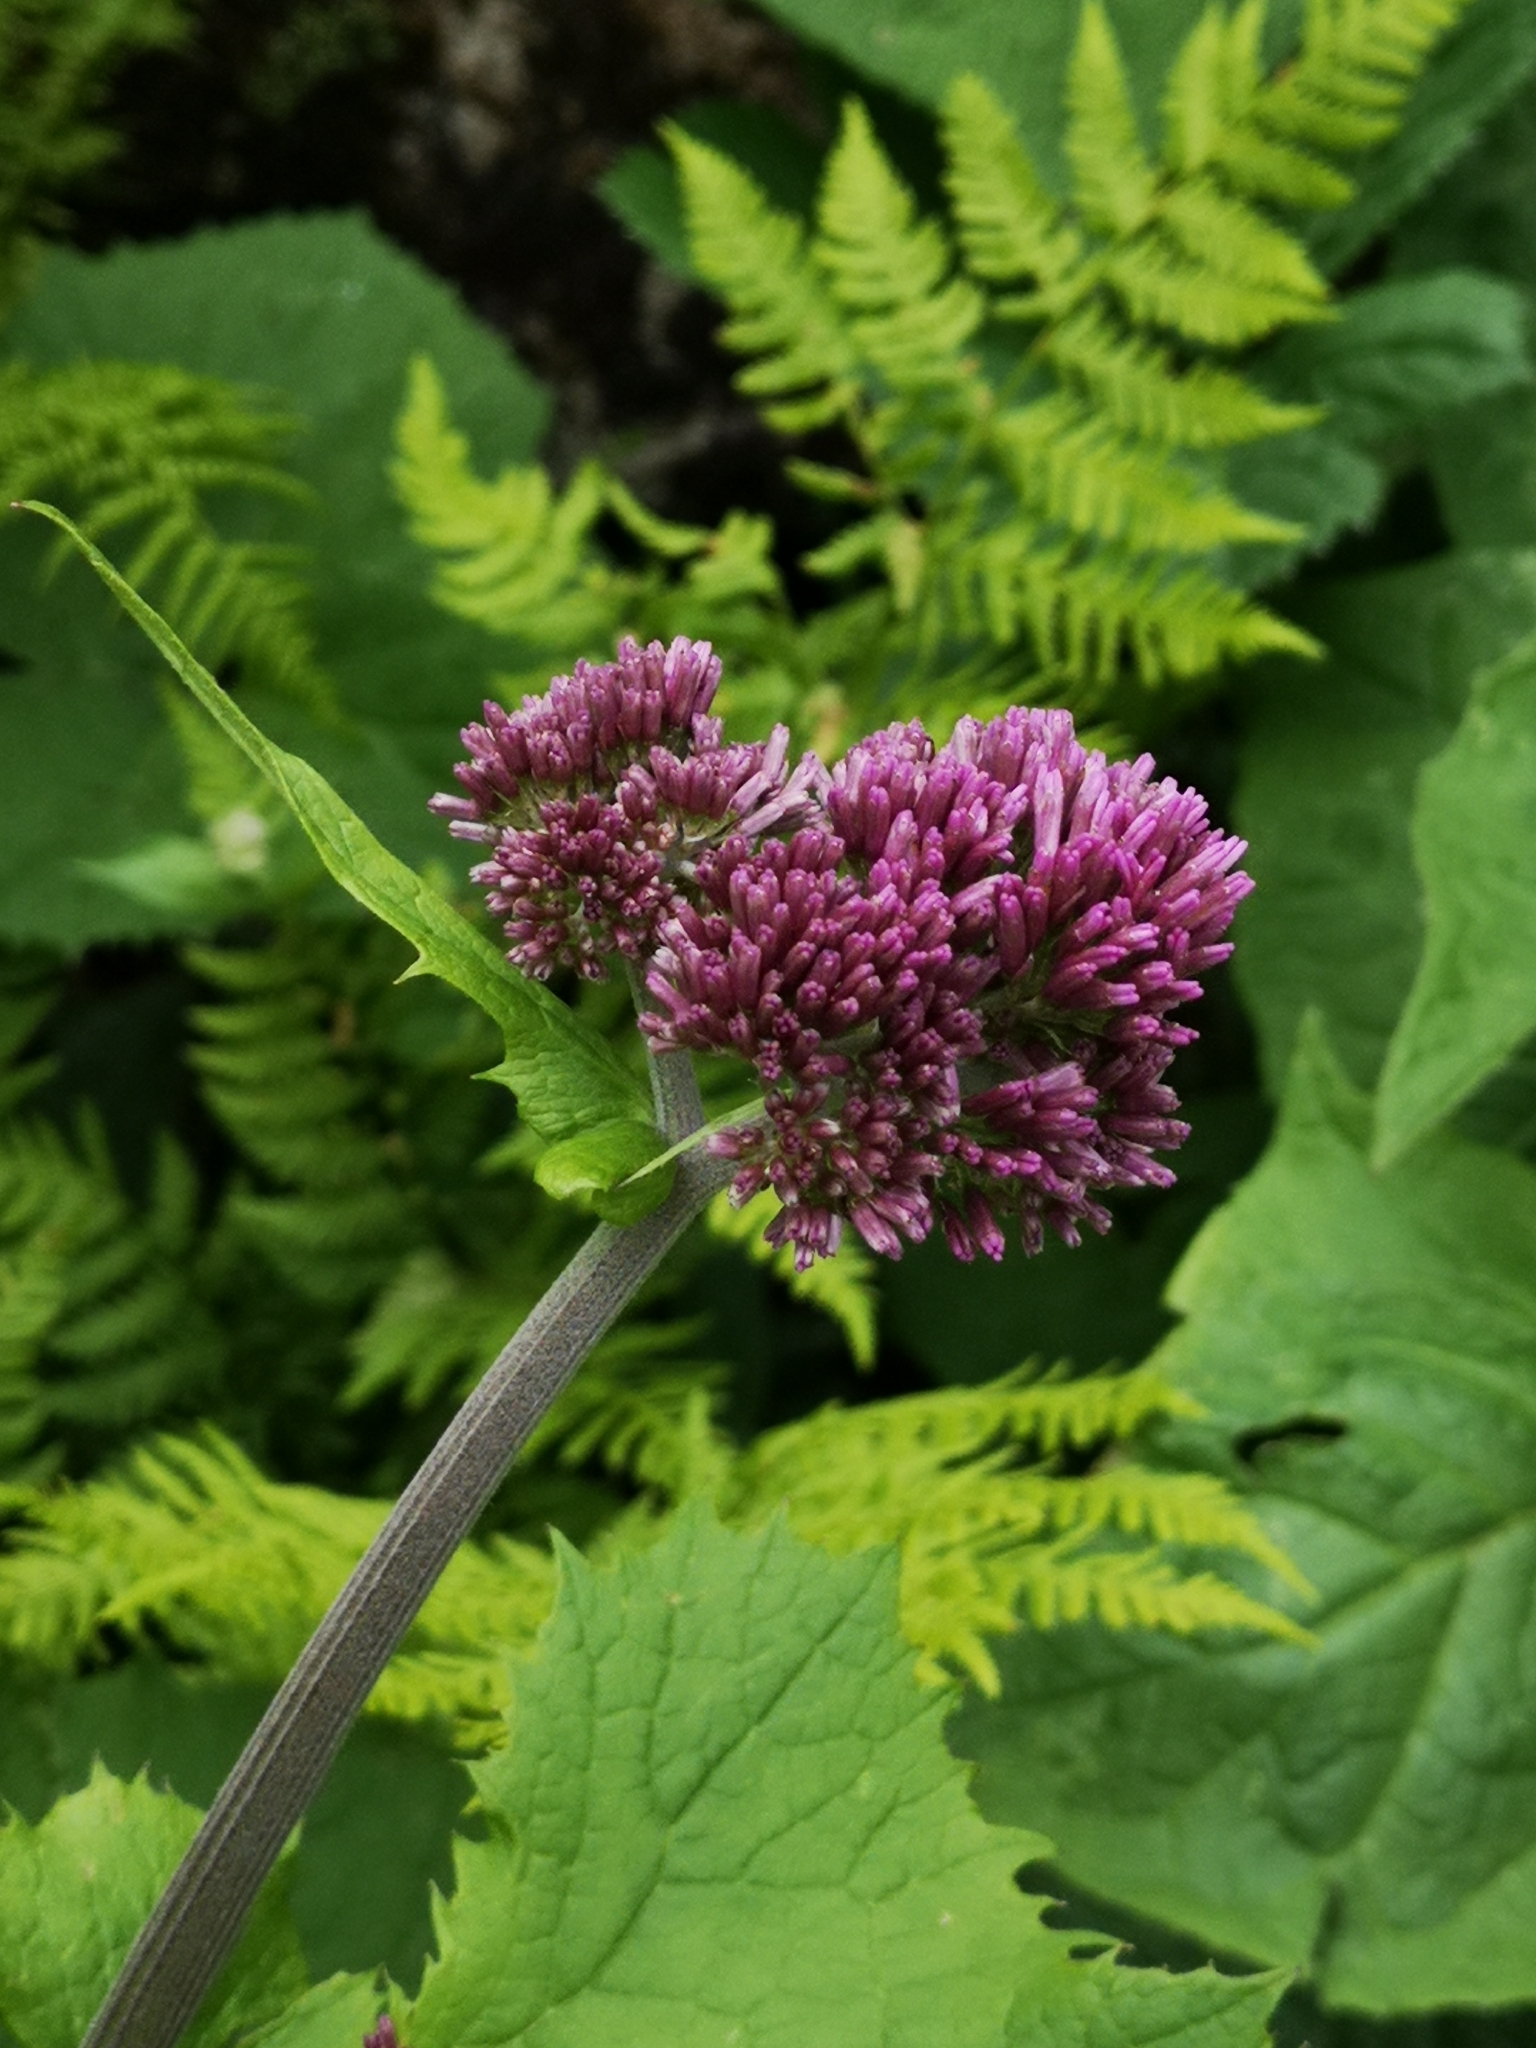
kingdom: Plantae
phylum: Tracheophyta
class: Magnoliopsida
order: Asterales
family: Asteraceae
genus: Adenostyles
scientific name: Adenostyles alliariae
